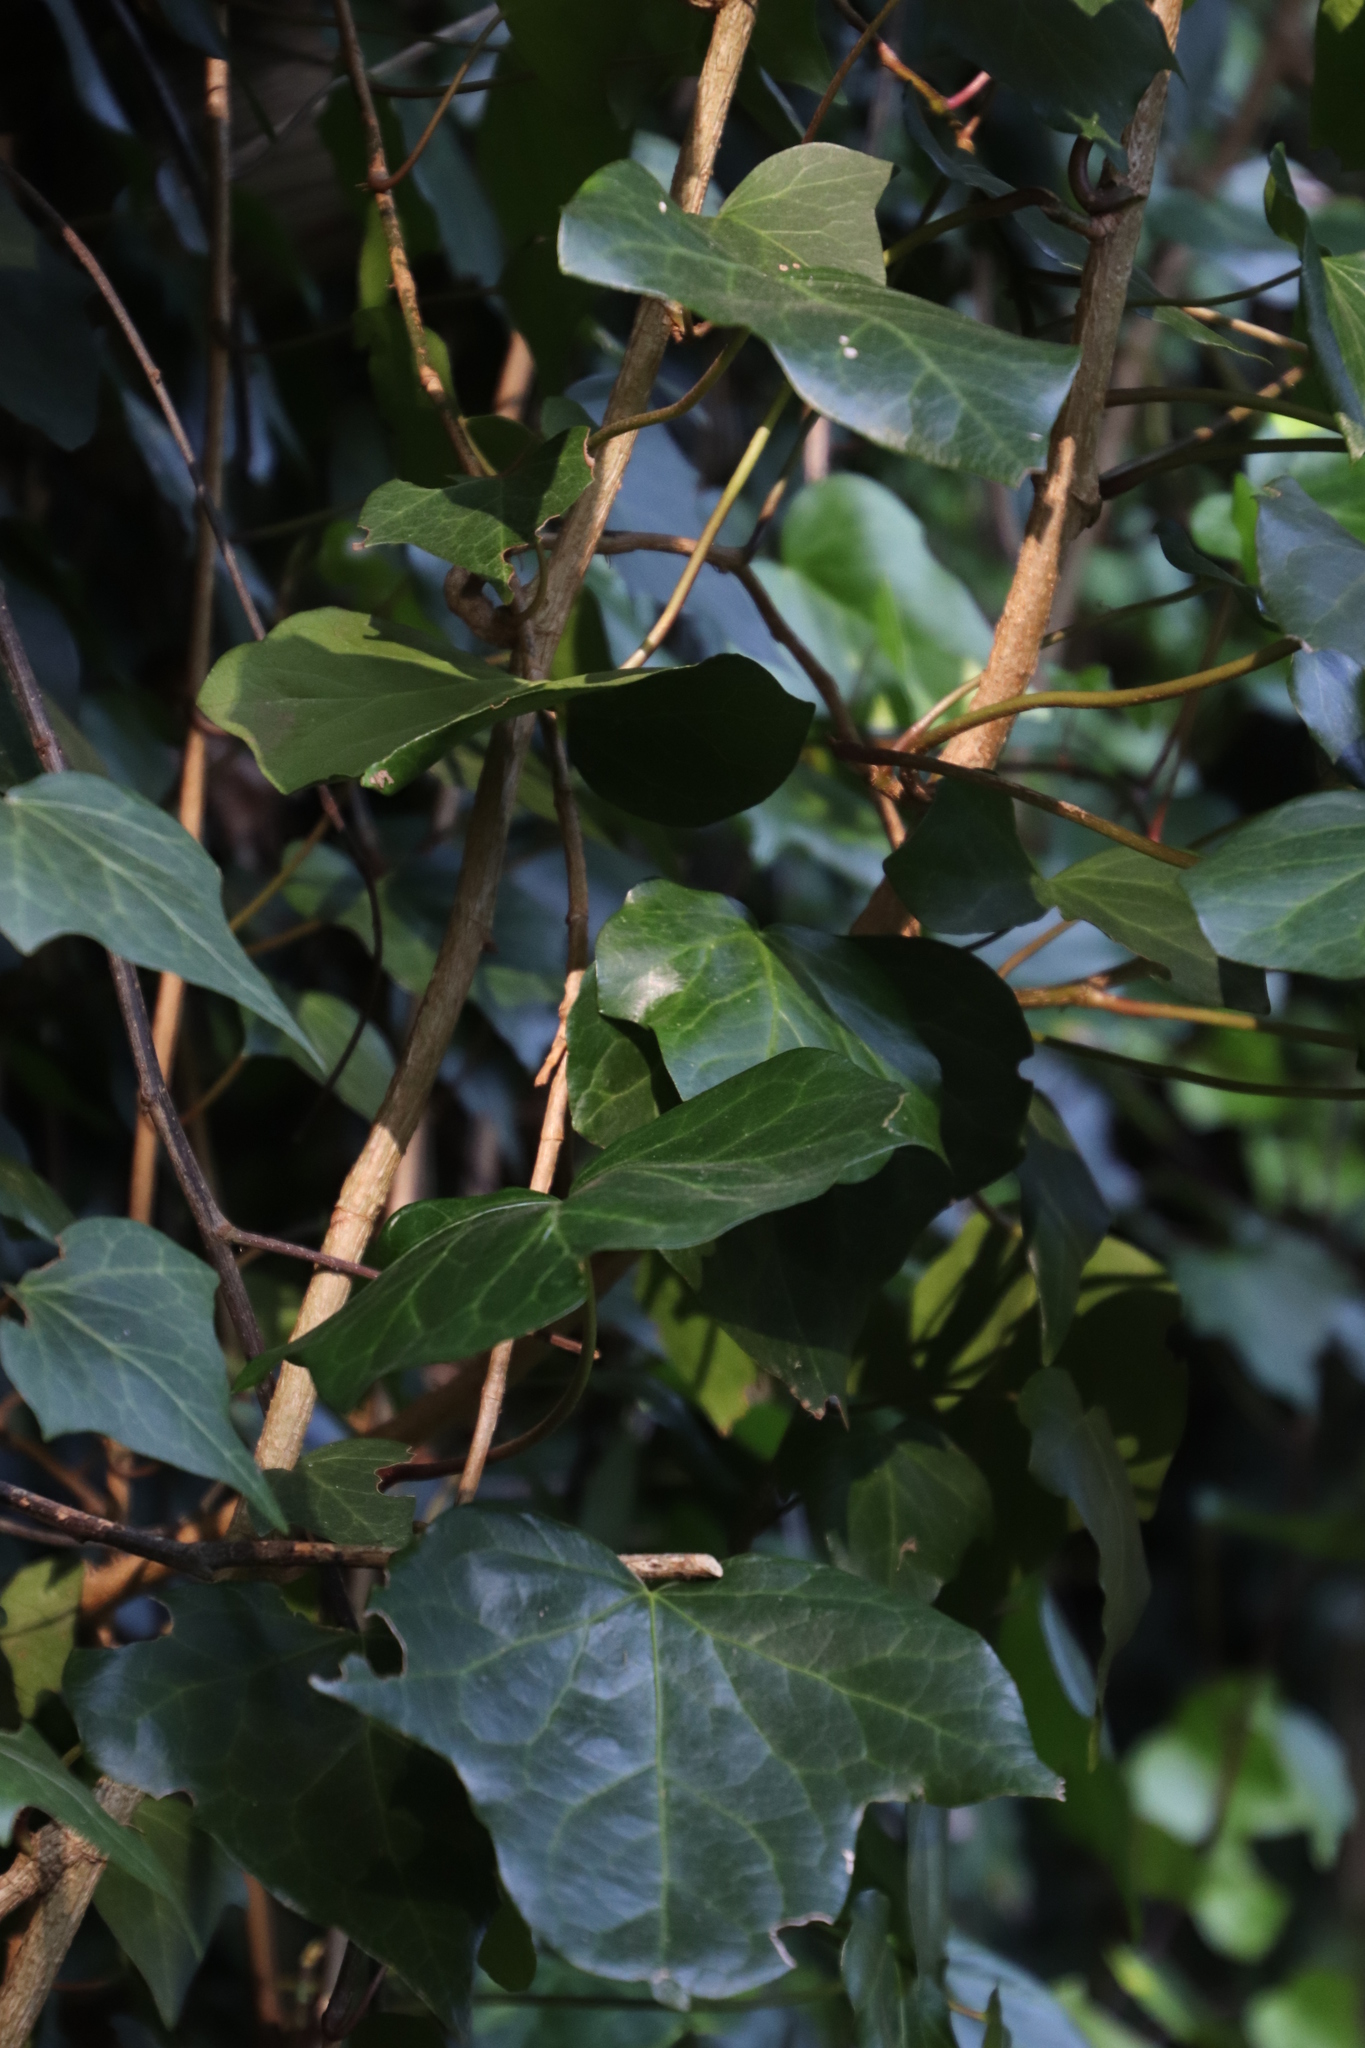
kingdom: Plantae
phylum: Tracheophyta
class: Magnoliopsida
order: Apiales
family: Araliaceae
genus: Hedera
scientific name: Hedera canariensis
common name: Madeira ivy
